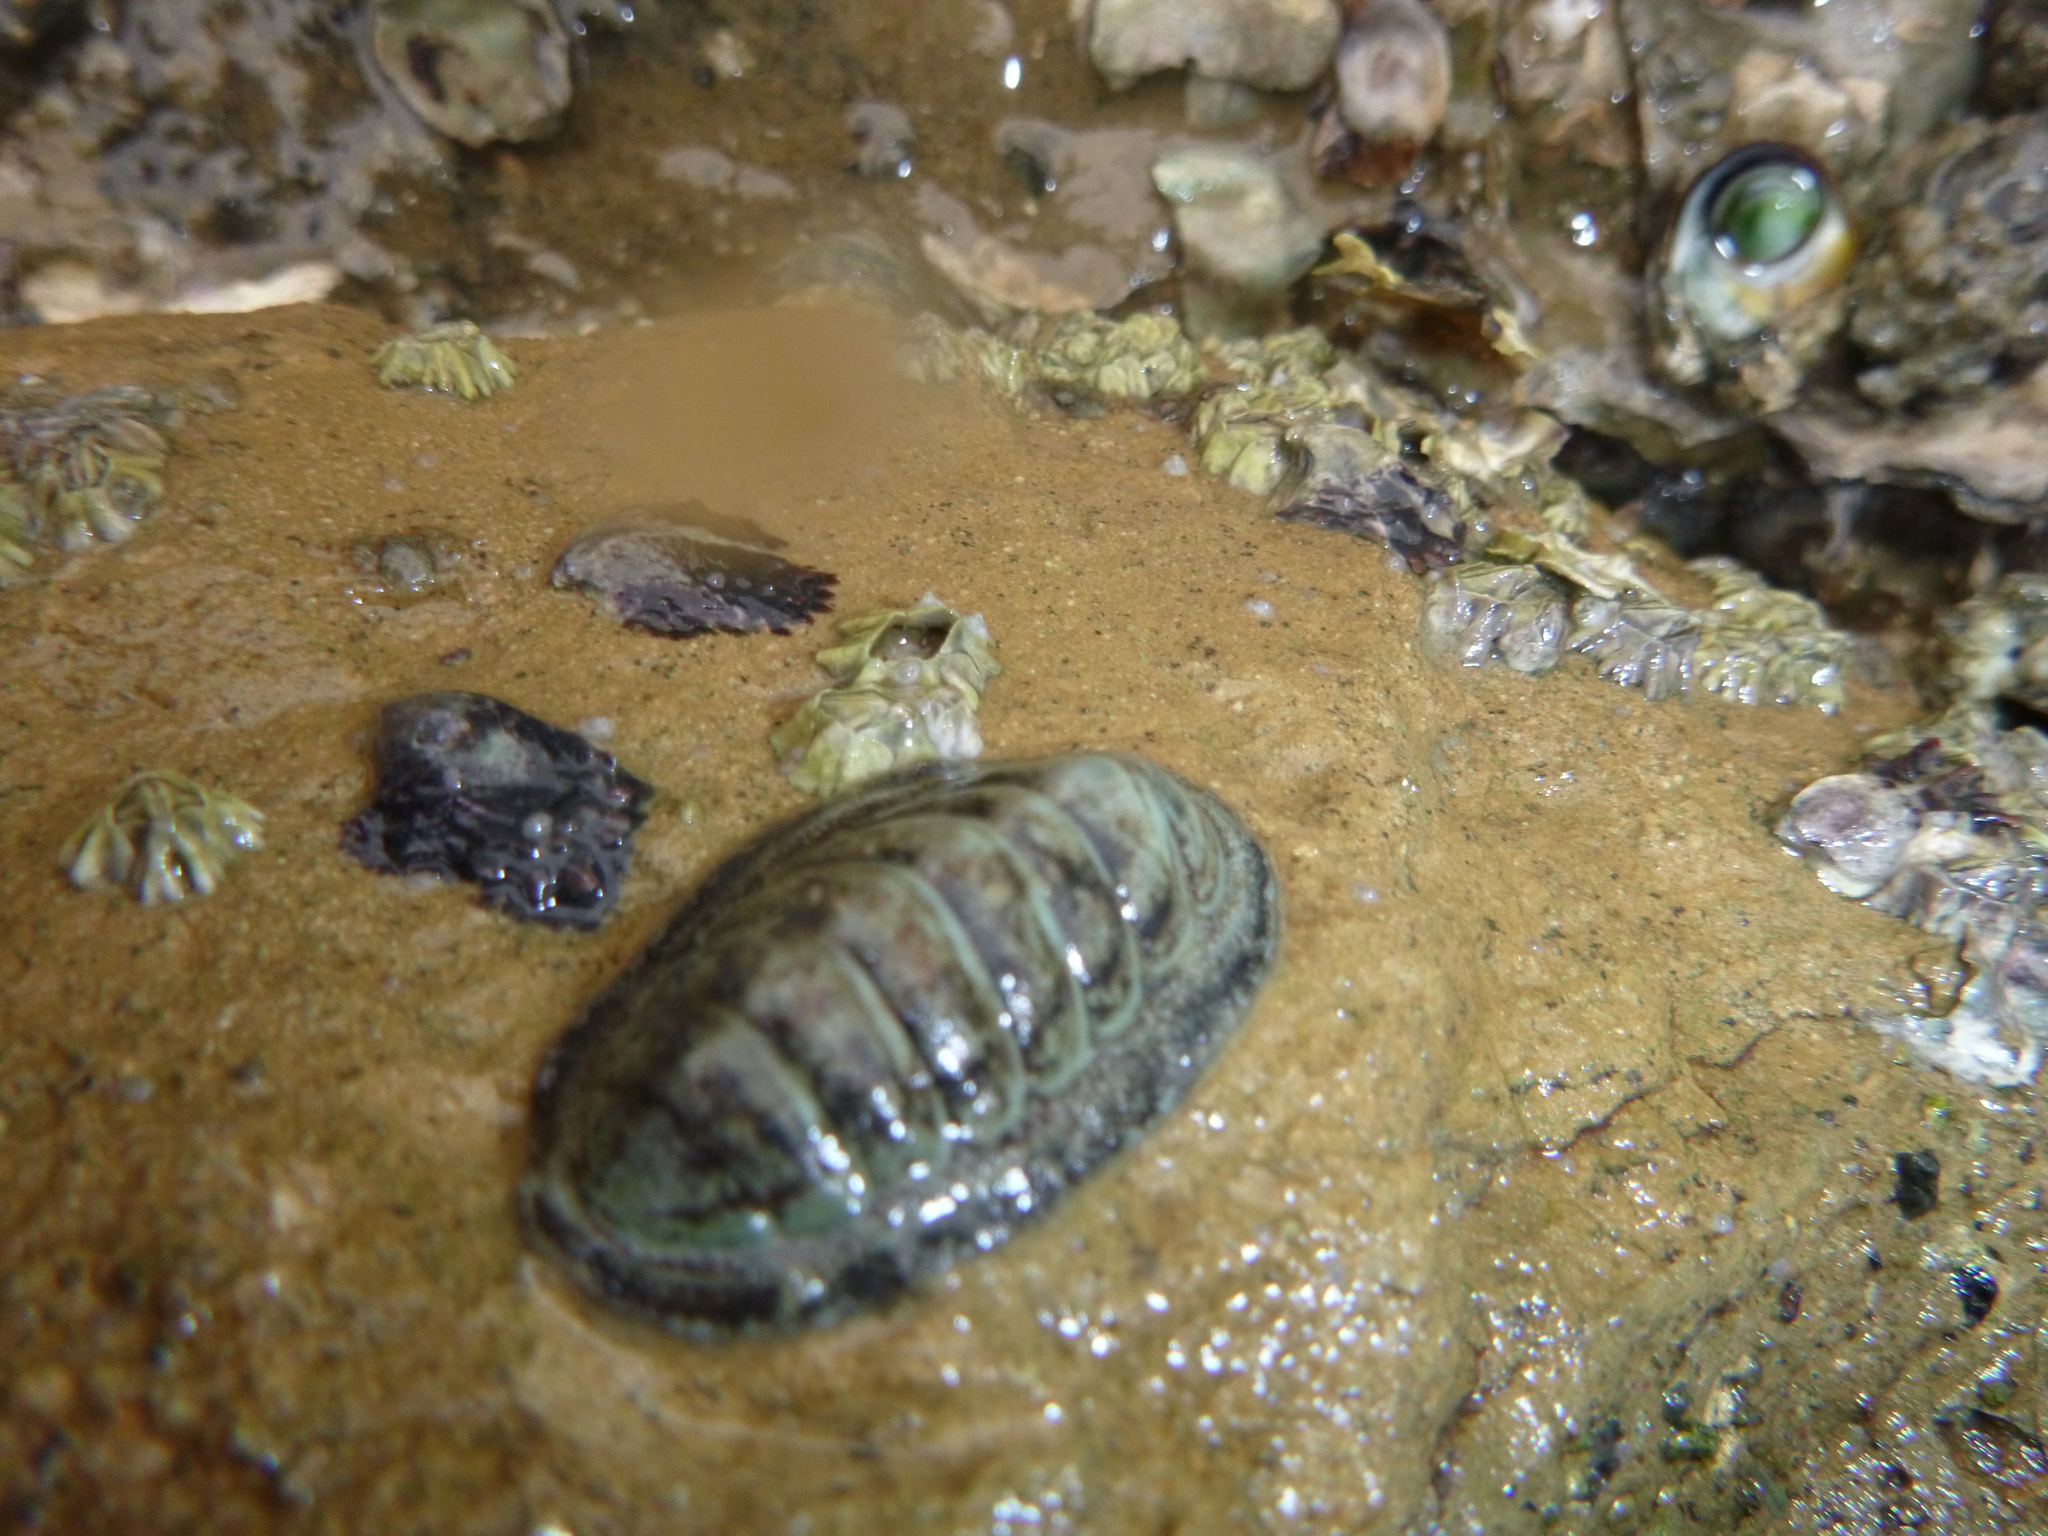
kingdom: Animalia
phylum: Mollusca
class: Polyplacophora
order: Chitonida
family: Chitonidae
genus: Chiton
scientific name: Chiton glaucus
